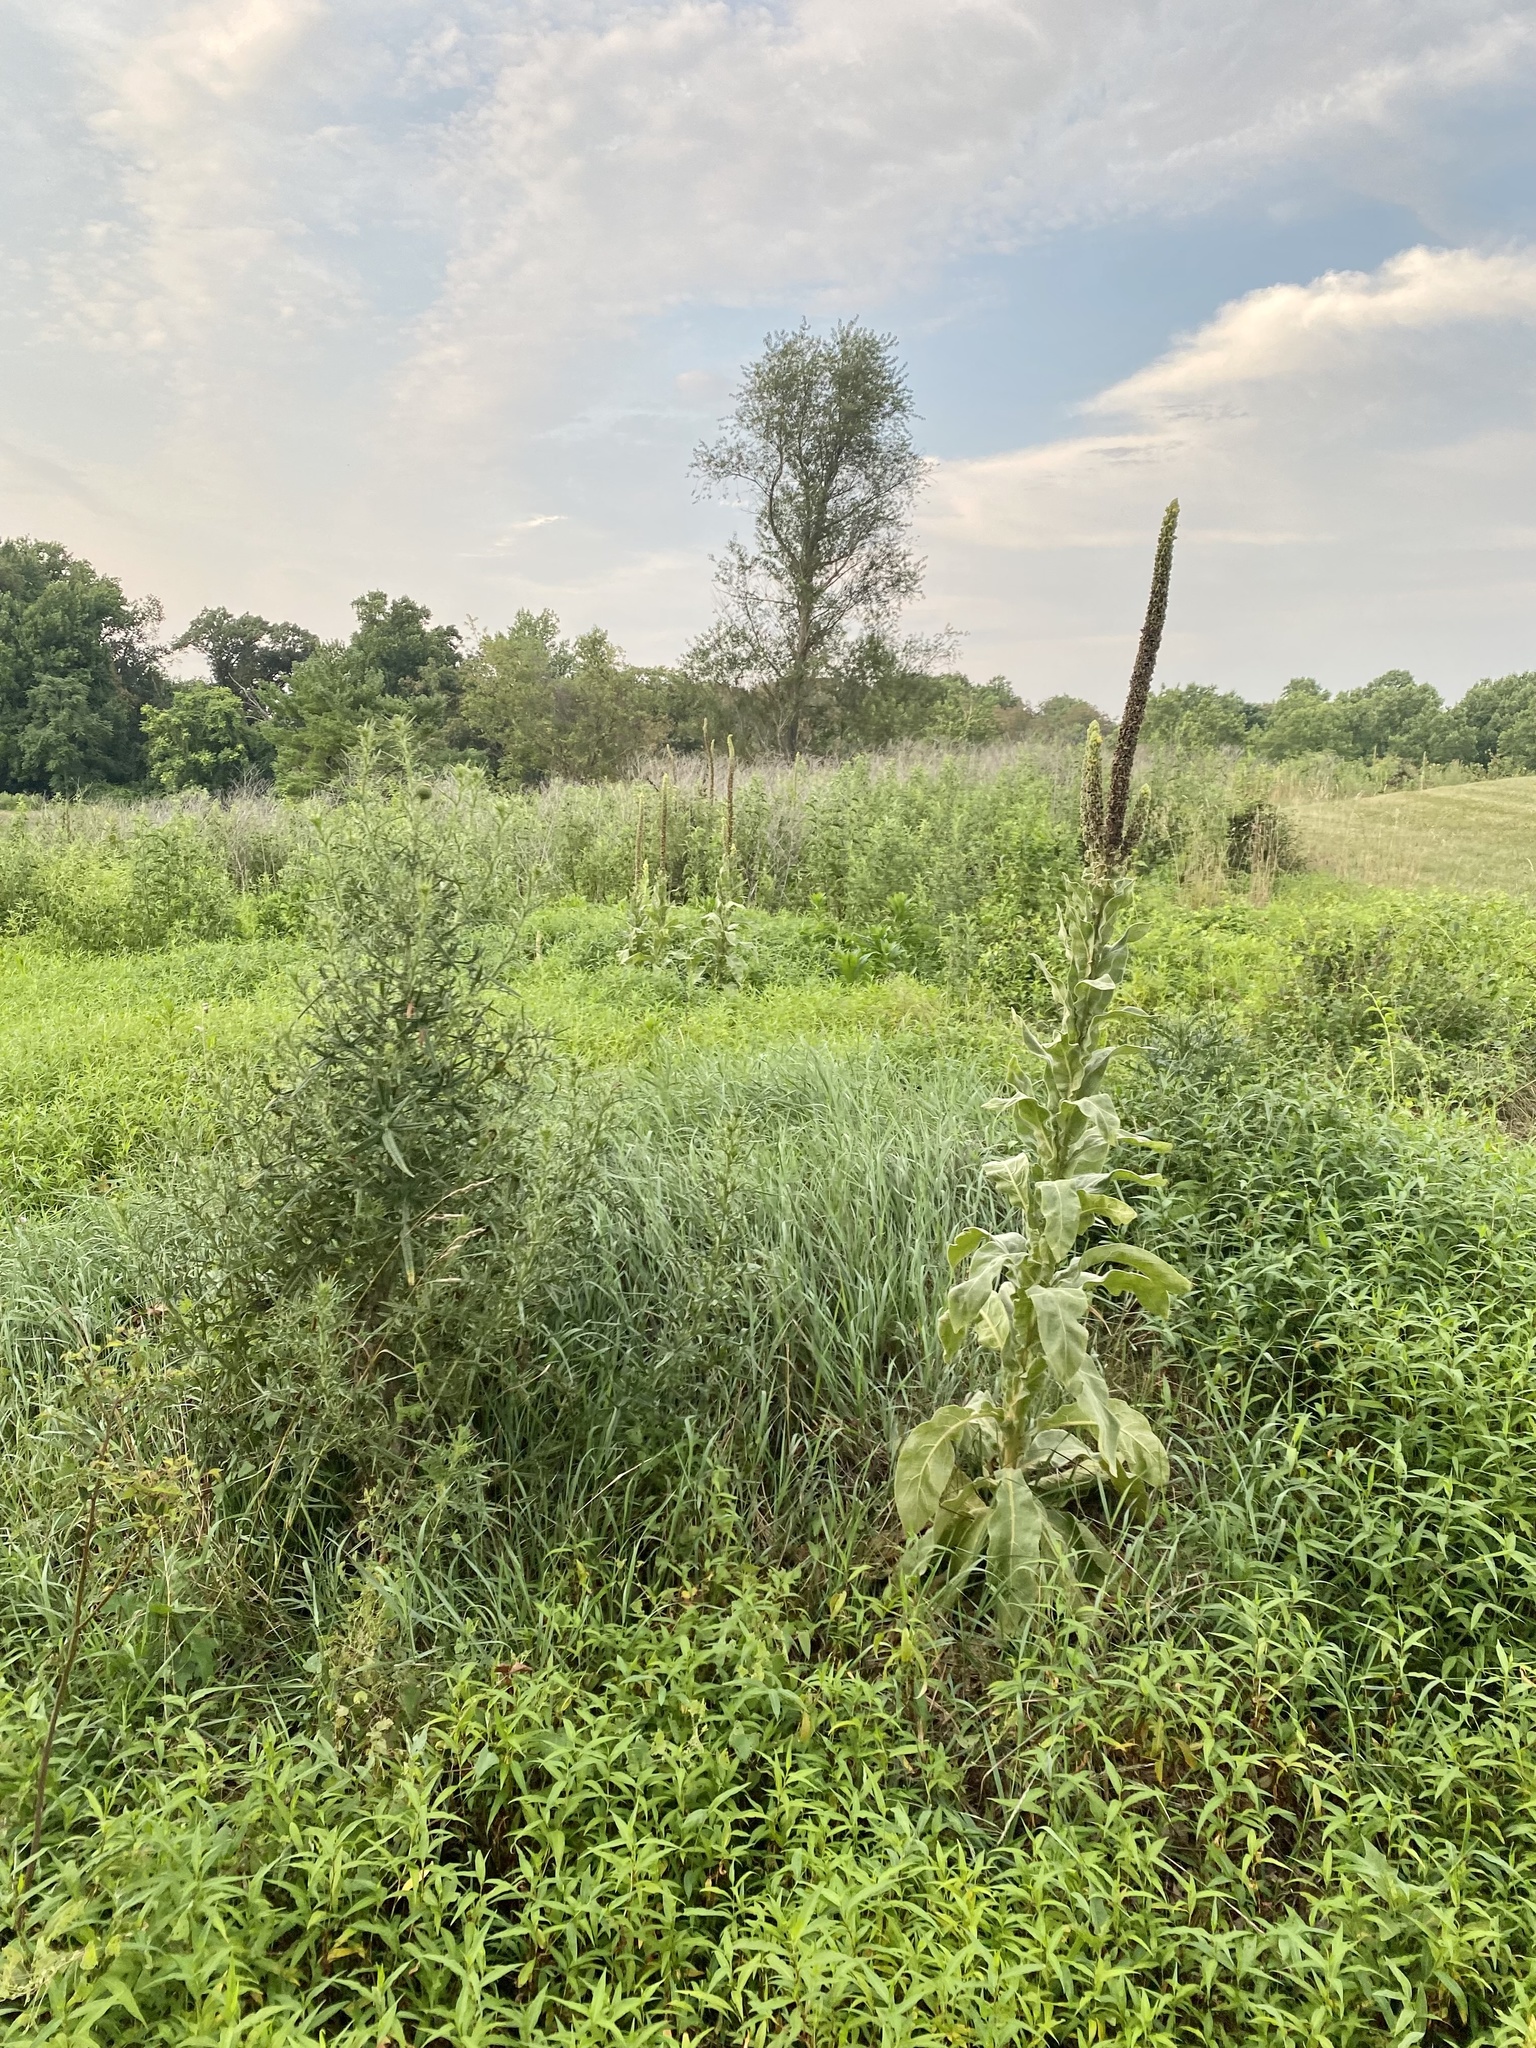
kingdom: Plantae
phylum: Tracheophyta
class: Magnoliopsida
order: Lamiales
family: Scrophulariaceae
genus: Verbascum
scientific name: Verbascum thapsus
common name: Common mullein
